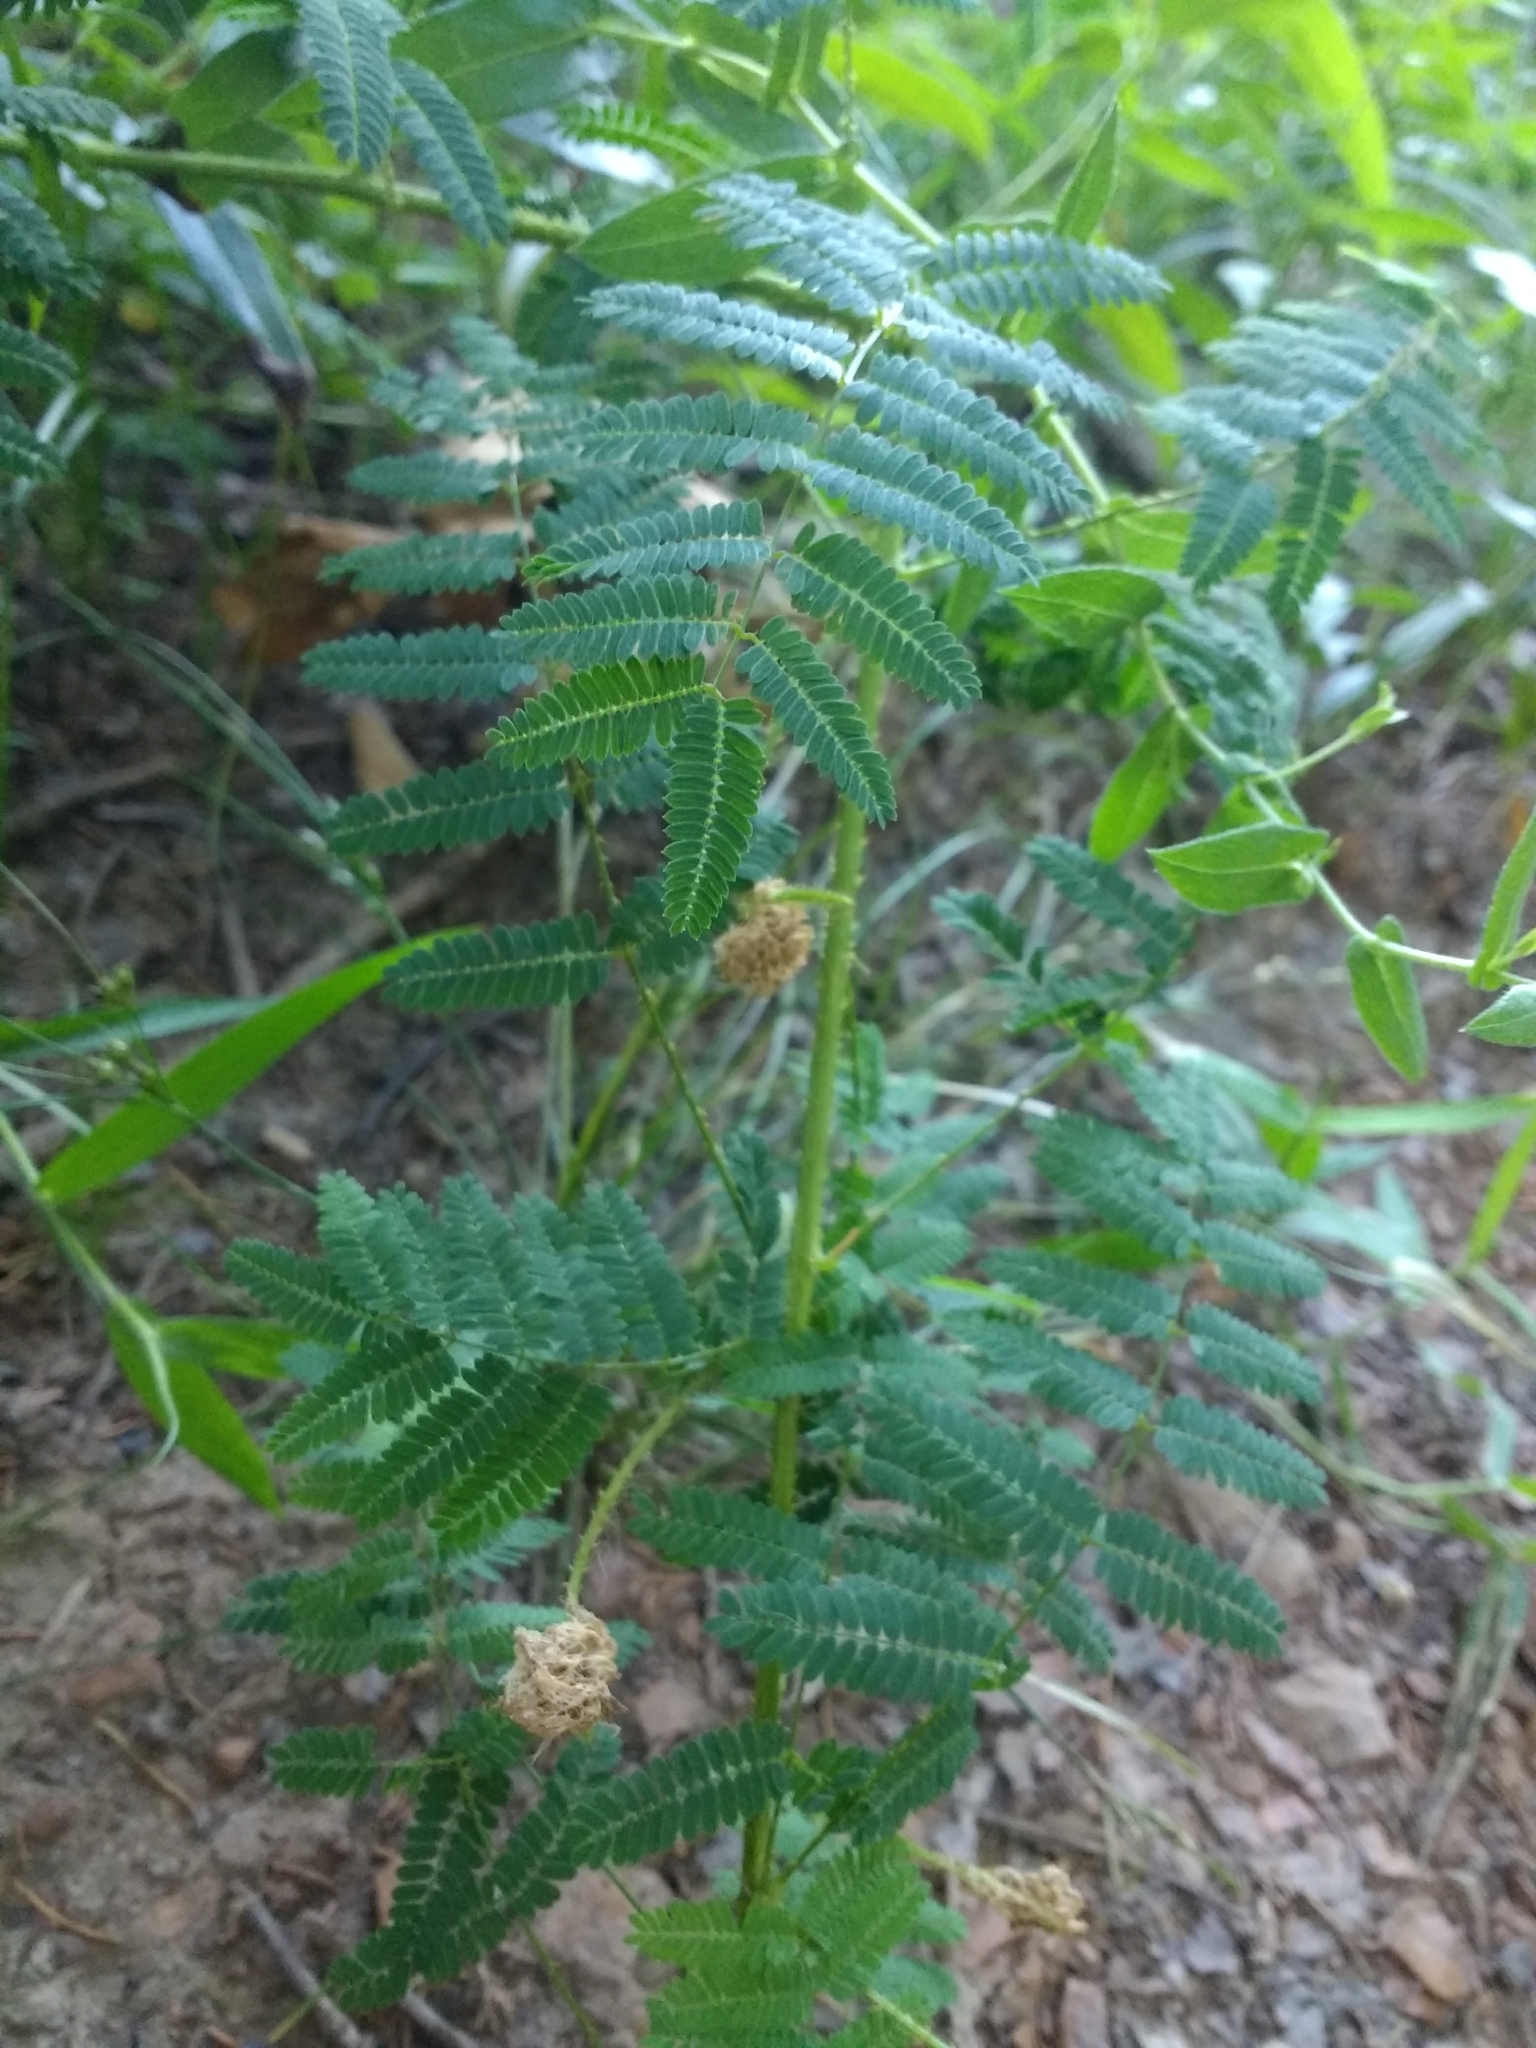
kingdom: Plantae
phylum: Tracheophyta
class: Magnoliopsida
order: Fabales
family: Fabaceae
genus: Mimosa
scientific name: Mimosa quadrivalvis
